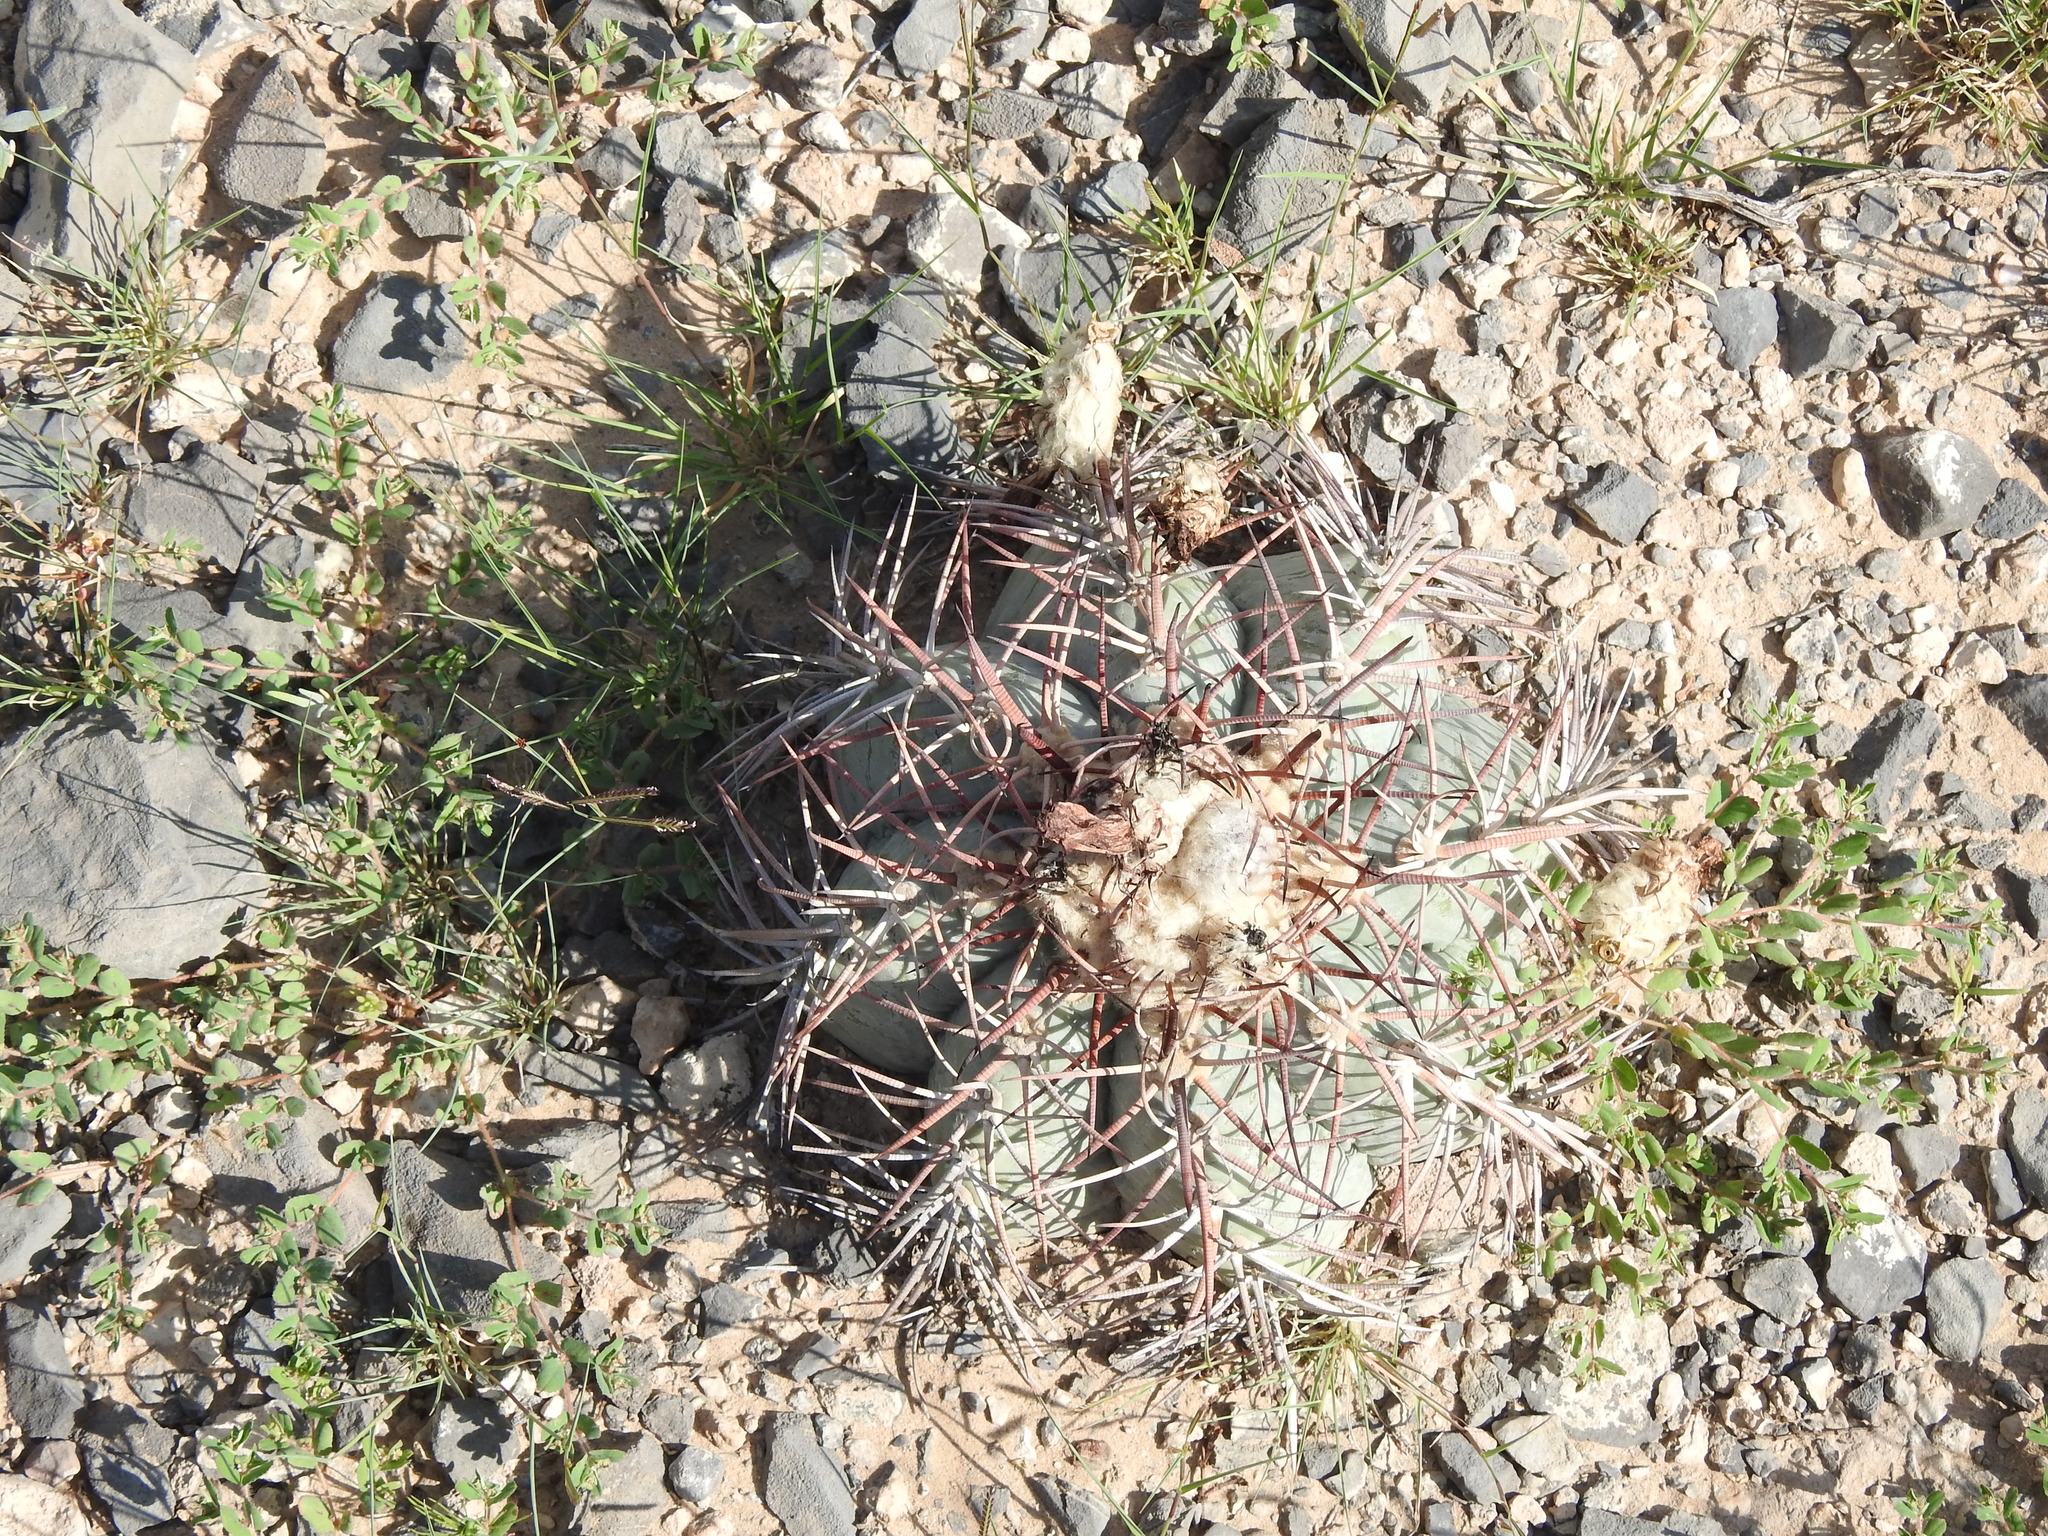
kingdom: Plantae
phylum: Tracheophyta
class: Magnoliopsida
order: Caryophyllales
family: Cactaceae
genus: Echinocactus
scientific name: Echinocactus horizonthalonius
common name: Devilshead
